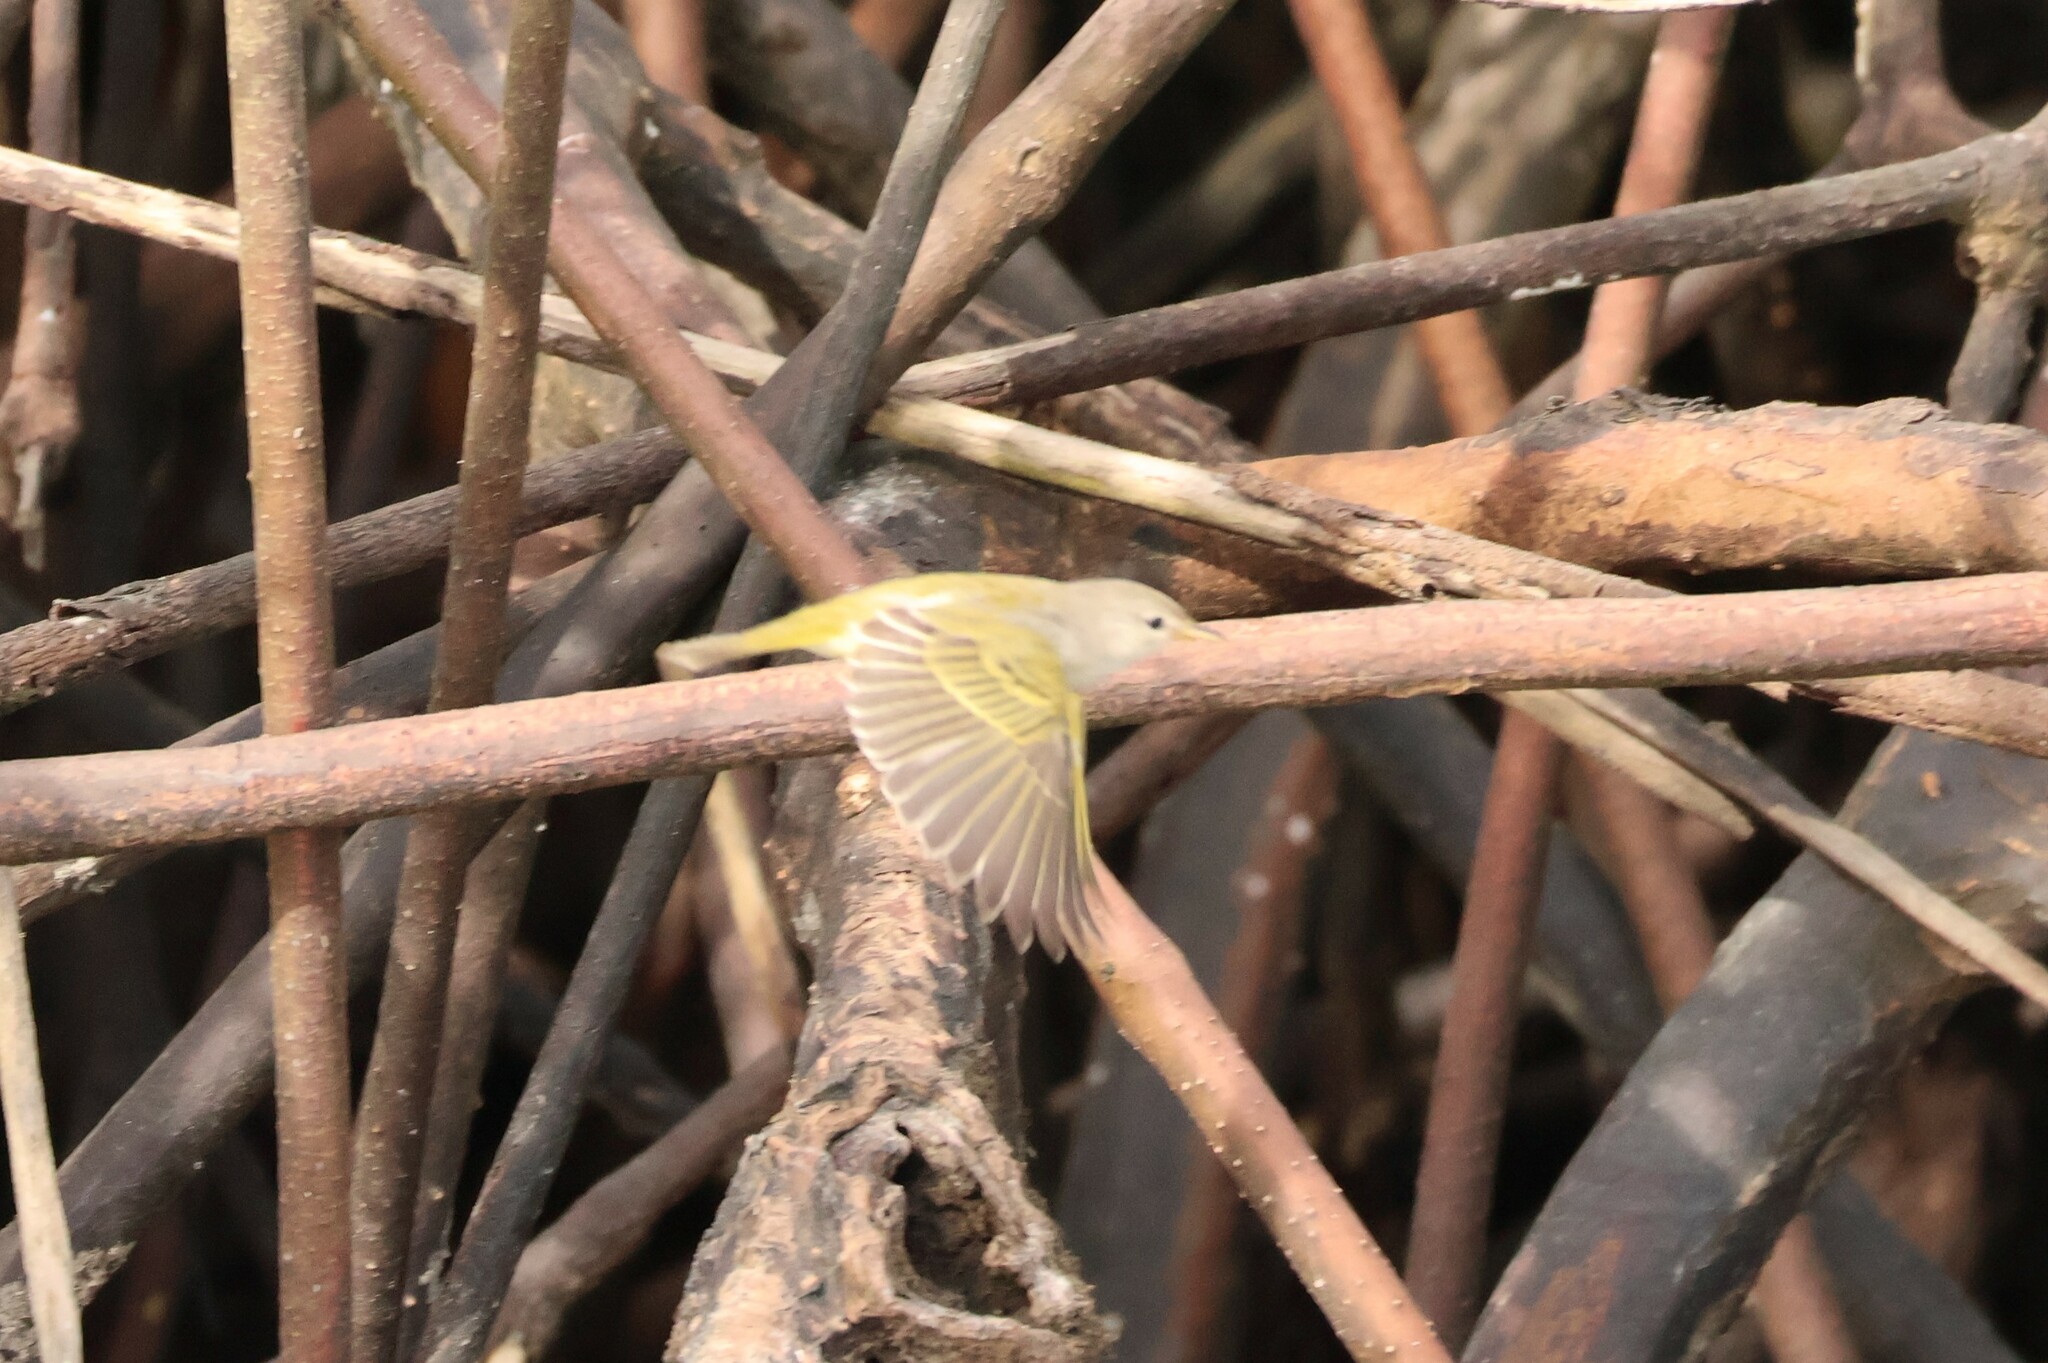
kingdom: Animalia
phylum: Chordata
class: Aves
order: Passeriformes
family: Parulidae
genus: Setophaga
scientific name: Setophaga petechia
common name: Yellow warbler
